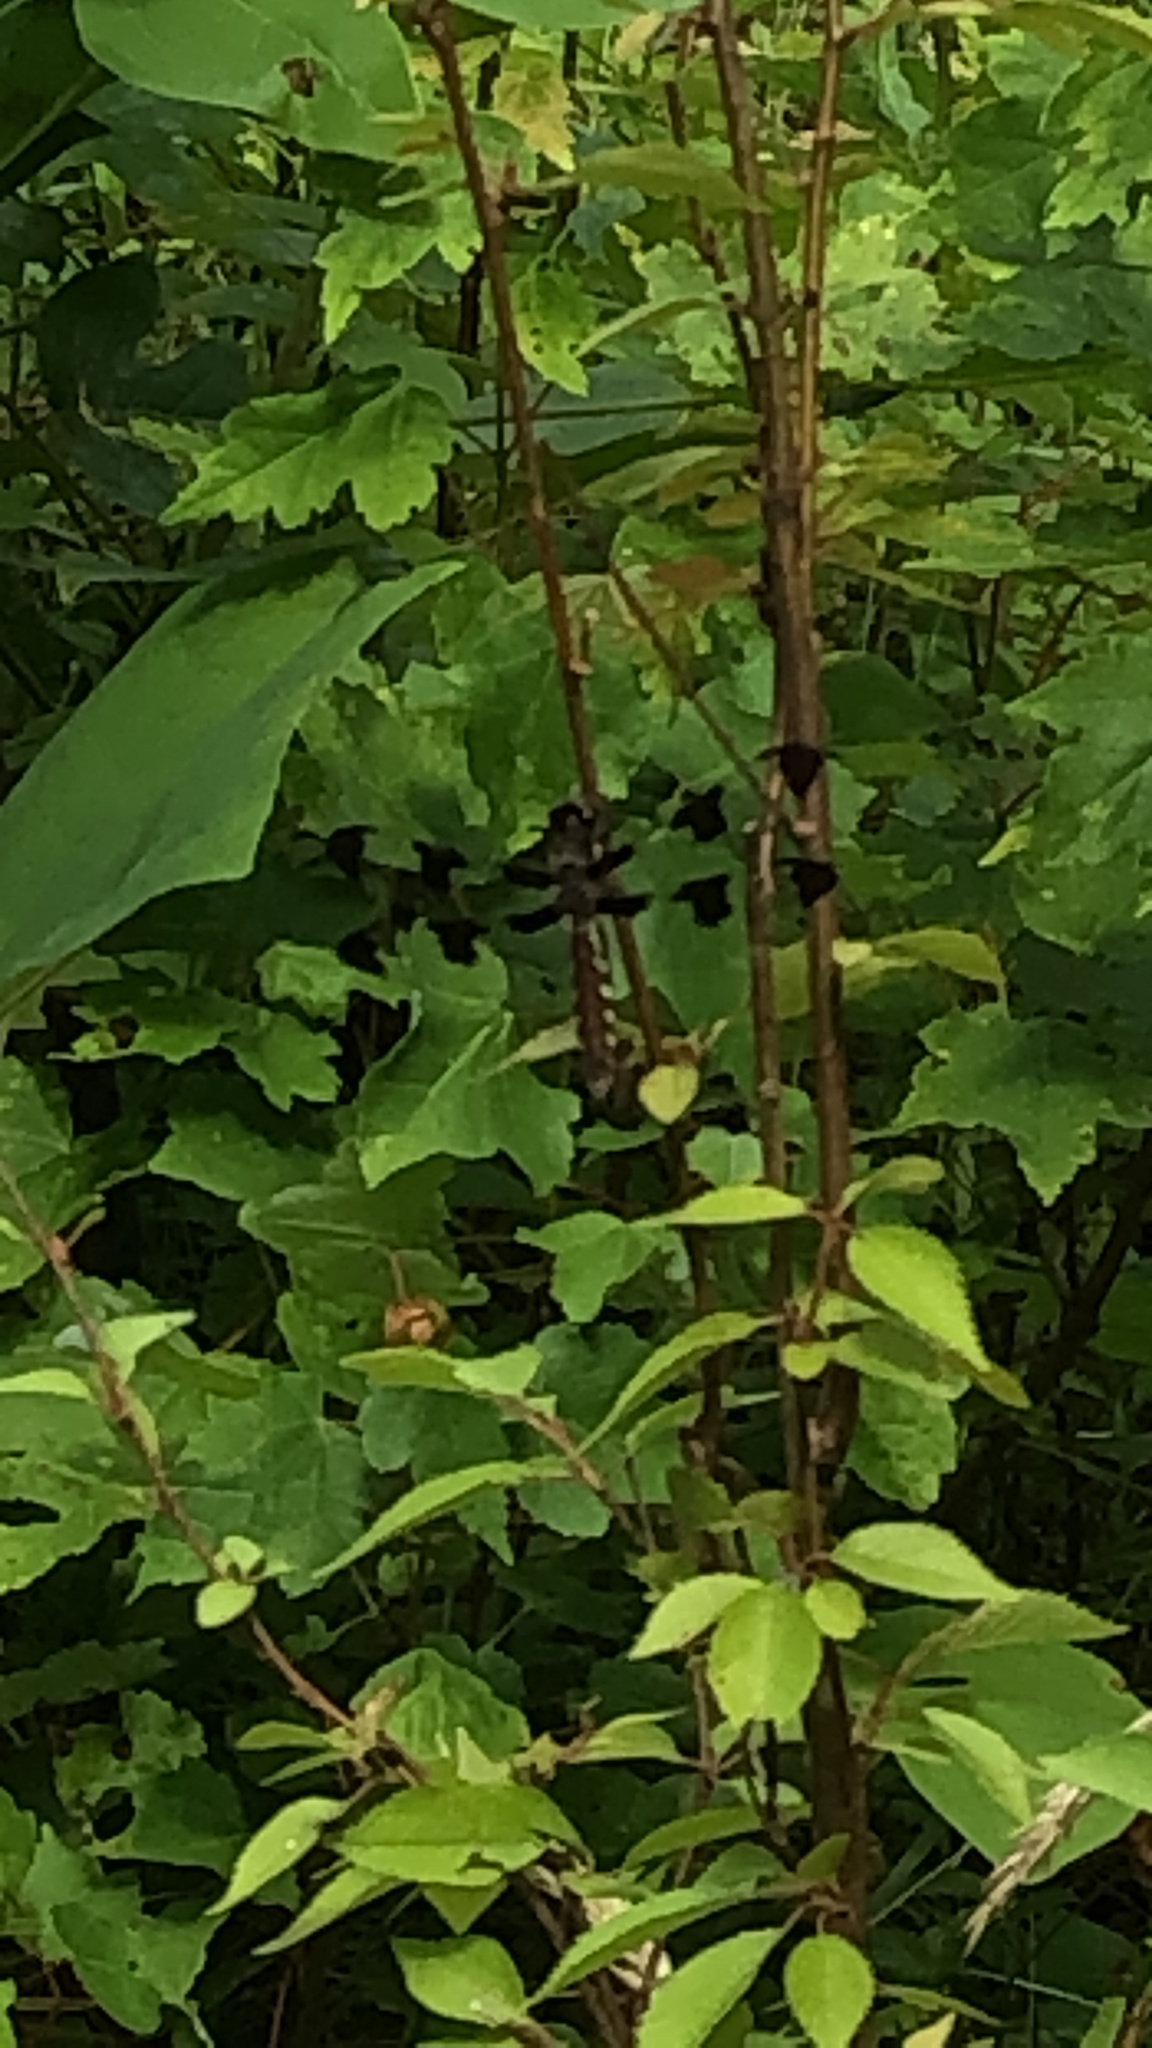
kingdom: Animalia
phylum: Arthropoda
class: Insecta
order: Odonata
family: Libellulidae
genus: Plathemis
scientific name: Plathemis lydia
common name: Common whitetail
